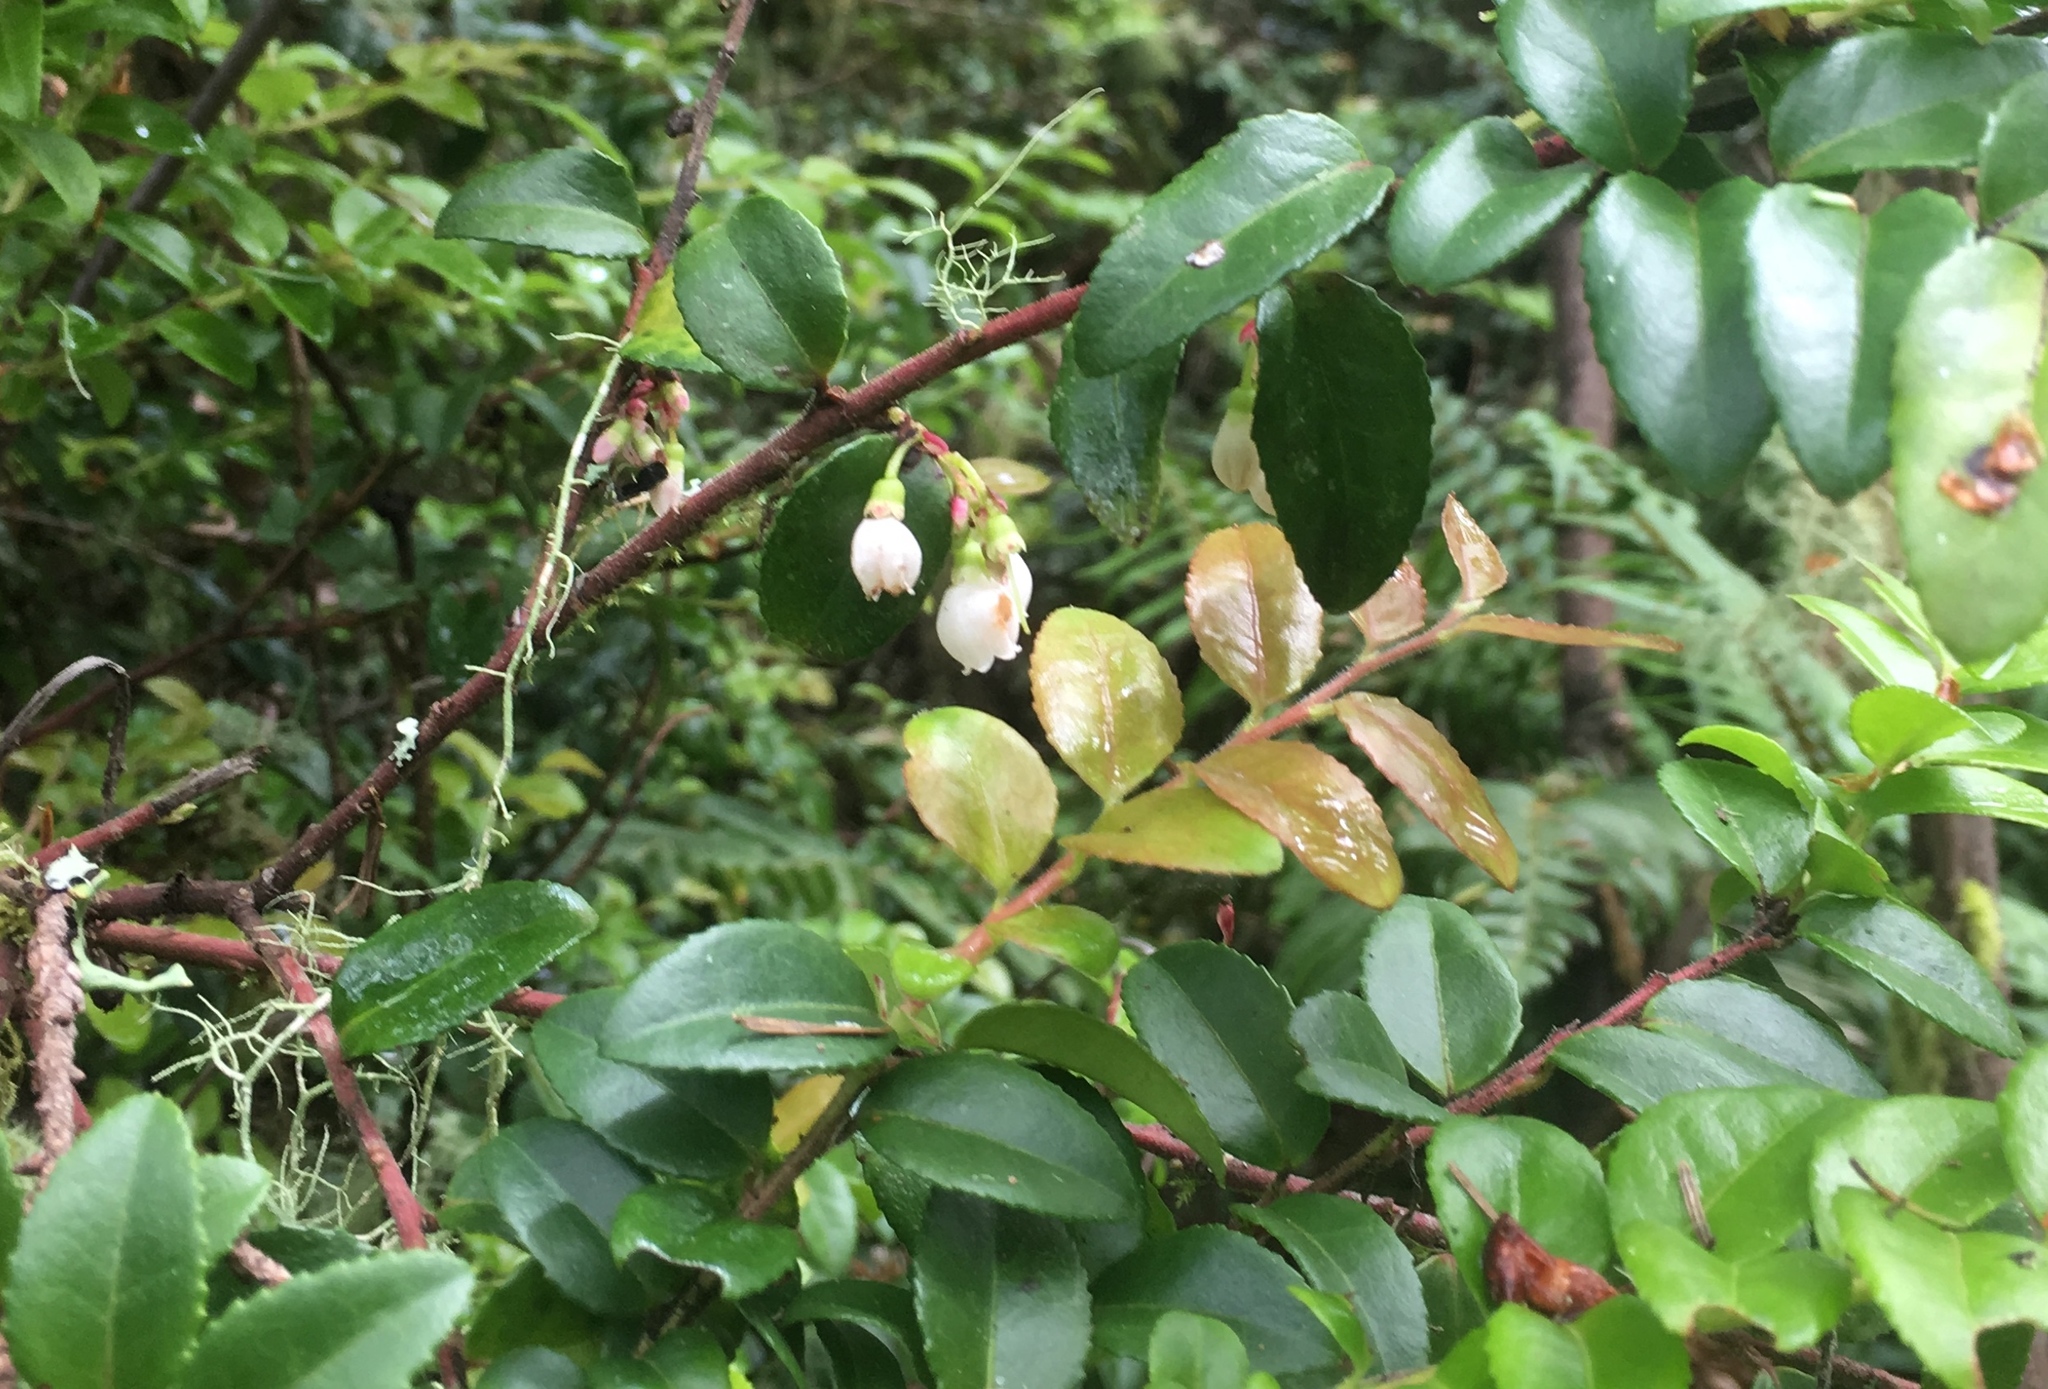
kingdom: Plantae
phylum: Tracheophyta
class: Magnoliopsida
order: Ericales
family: Ericaceae
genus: Vaccinium
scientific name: Vaccinium ovatum
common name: California-huckleberry
